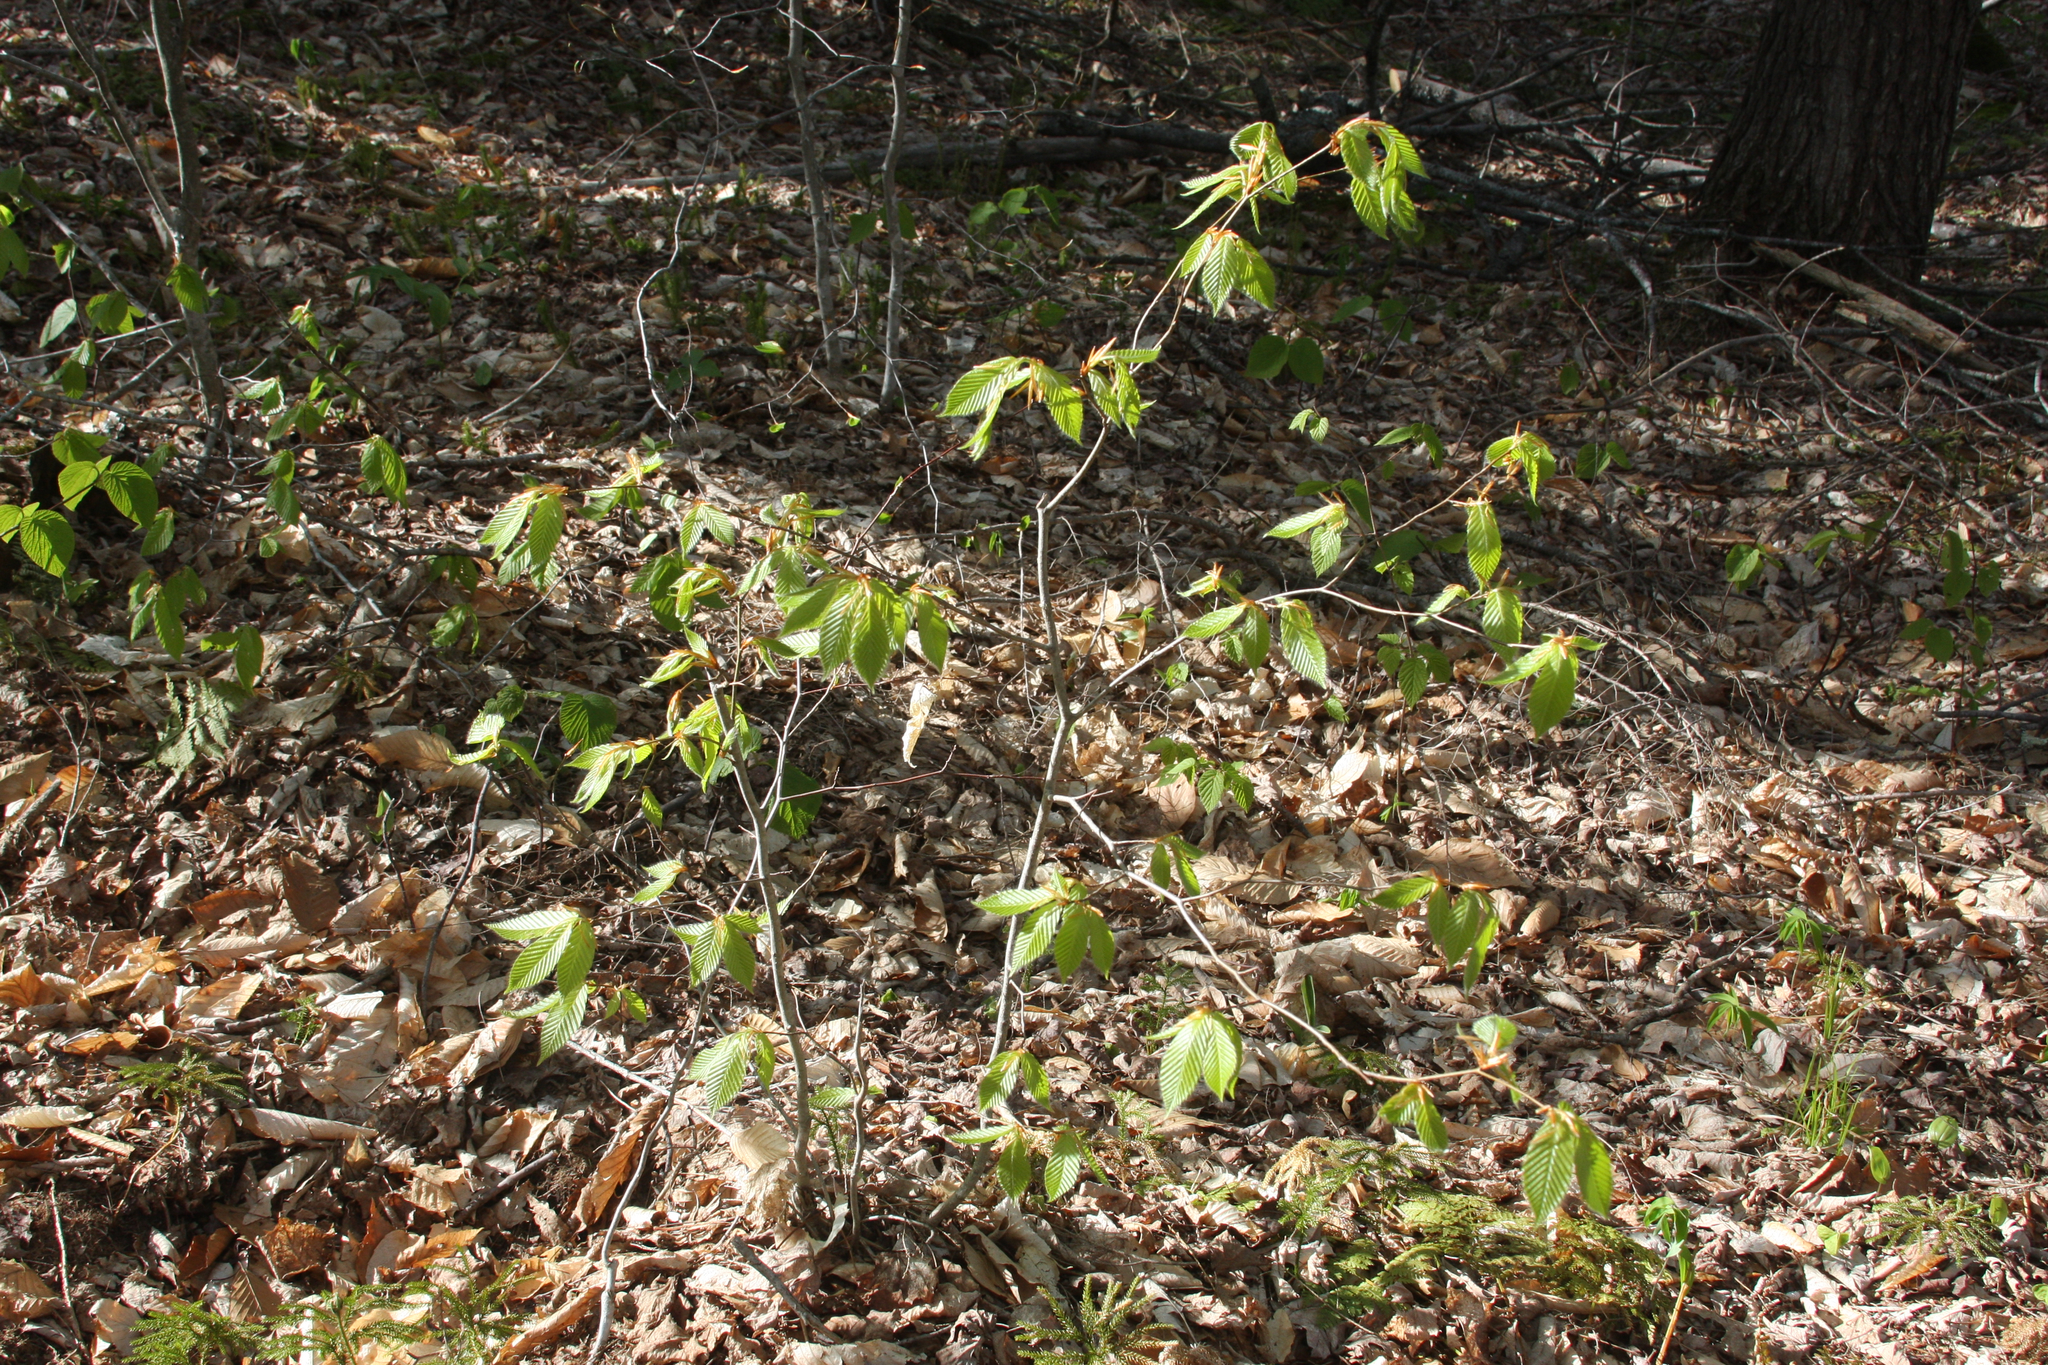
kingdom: Plantae
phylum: Tracheophyta
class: Magnoliopsida
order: Fagales
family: Fagaceae
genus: Fagus
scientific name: Fagus grandifolia
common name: American beech
